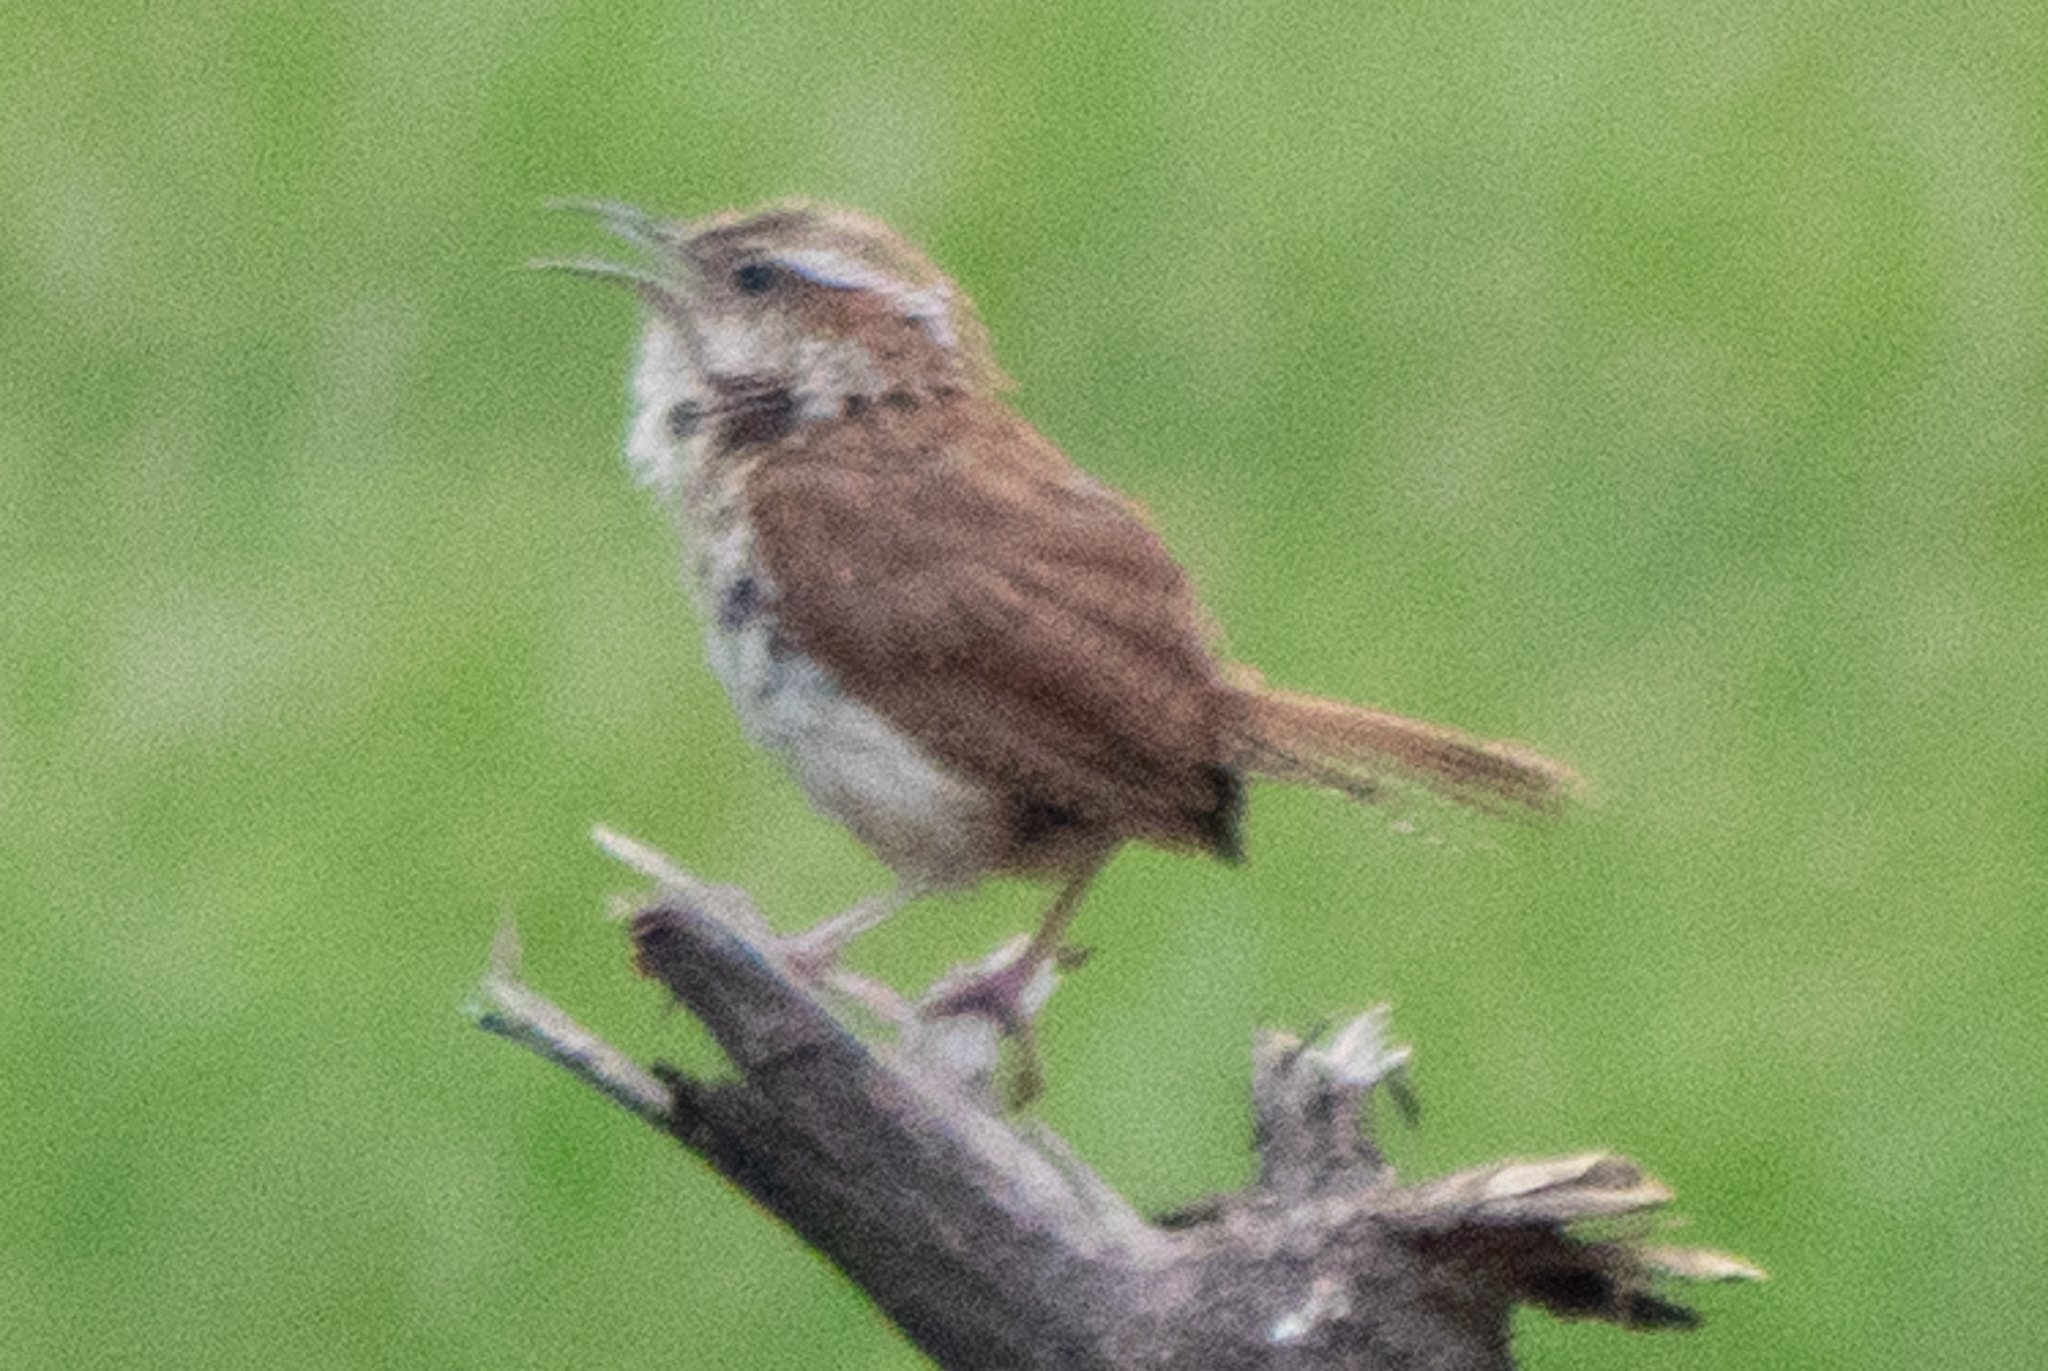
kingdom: Animalia
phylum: Chordata
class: Aves
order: Passeriformes
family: Troglodytidae
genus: Thryothorus
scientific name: Thryothorus ludovicianus
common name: Carolina wren
